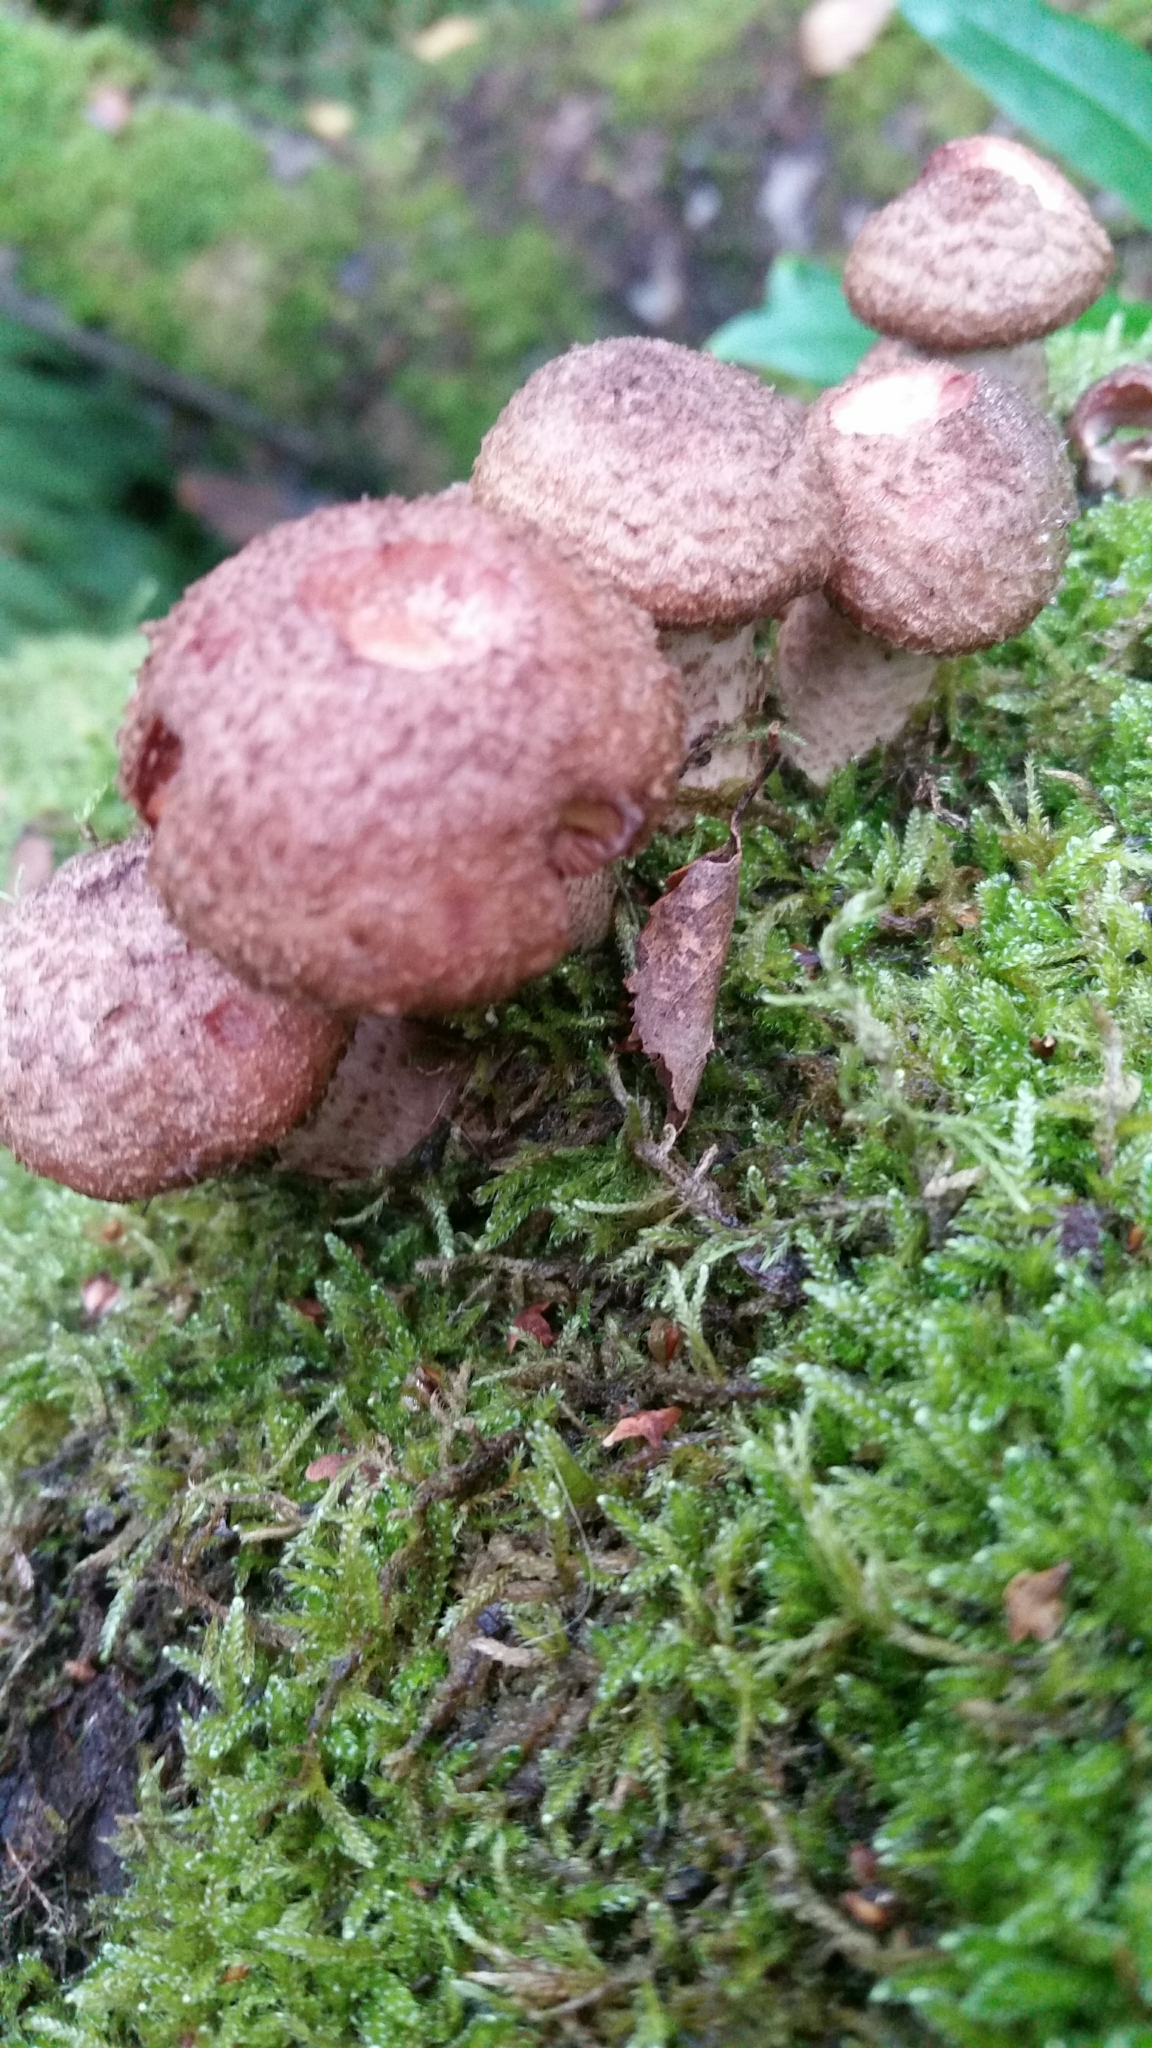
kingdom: Fungi
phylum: Basidiomycota
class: Agaricomycetes
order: Agaricales
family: Physalacriaceae
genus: Armillaria
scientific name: Armillaria ostoyae
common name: Dark honey fungus
